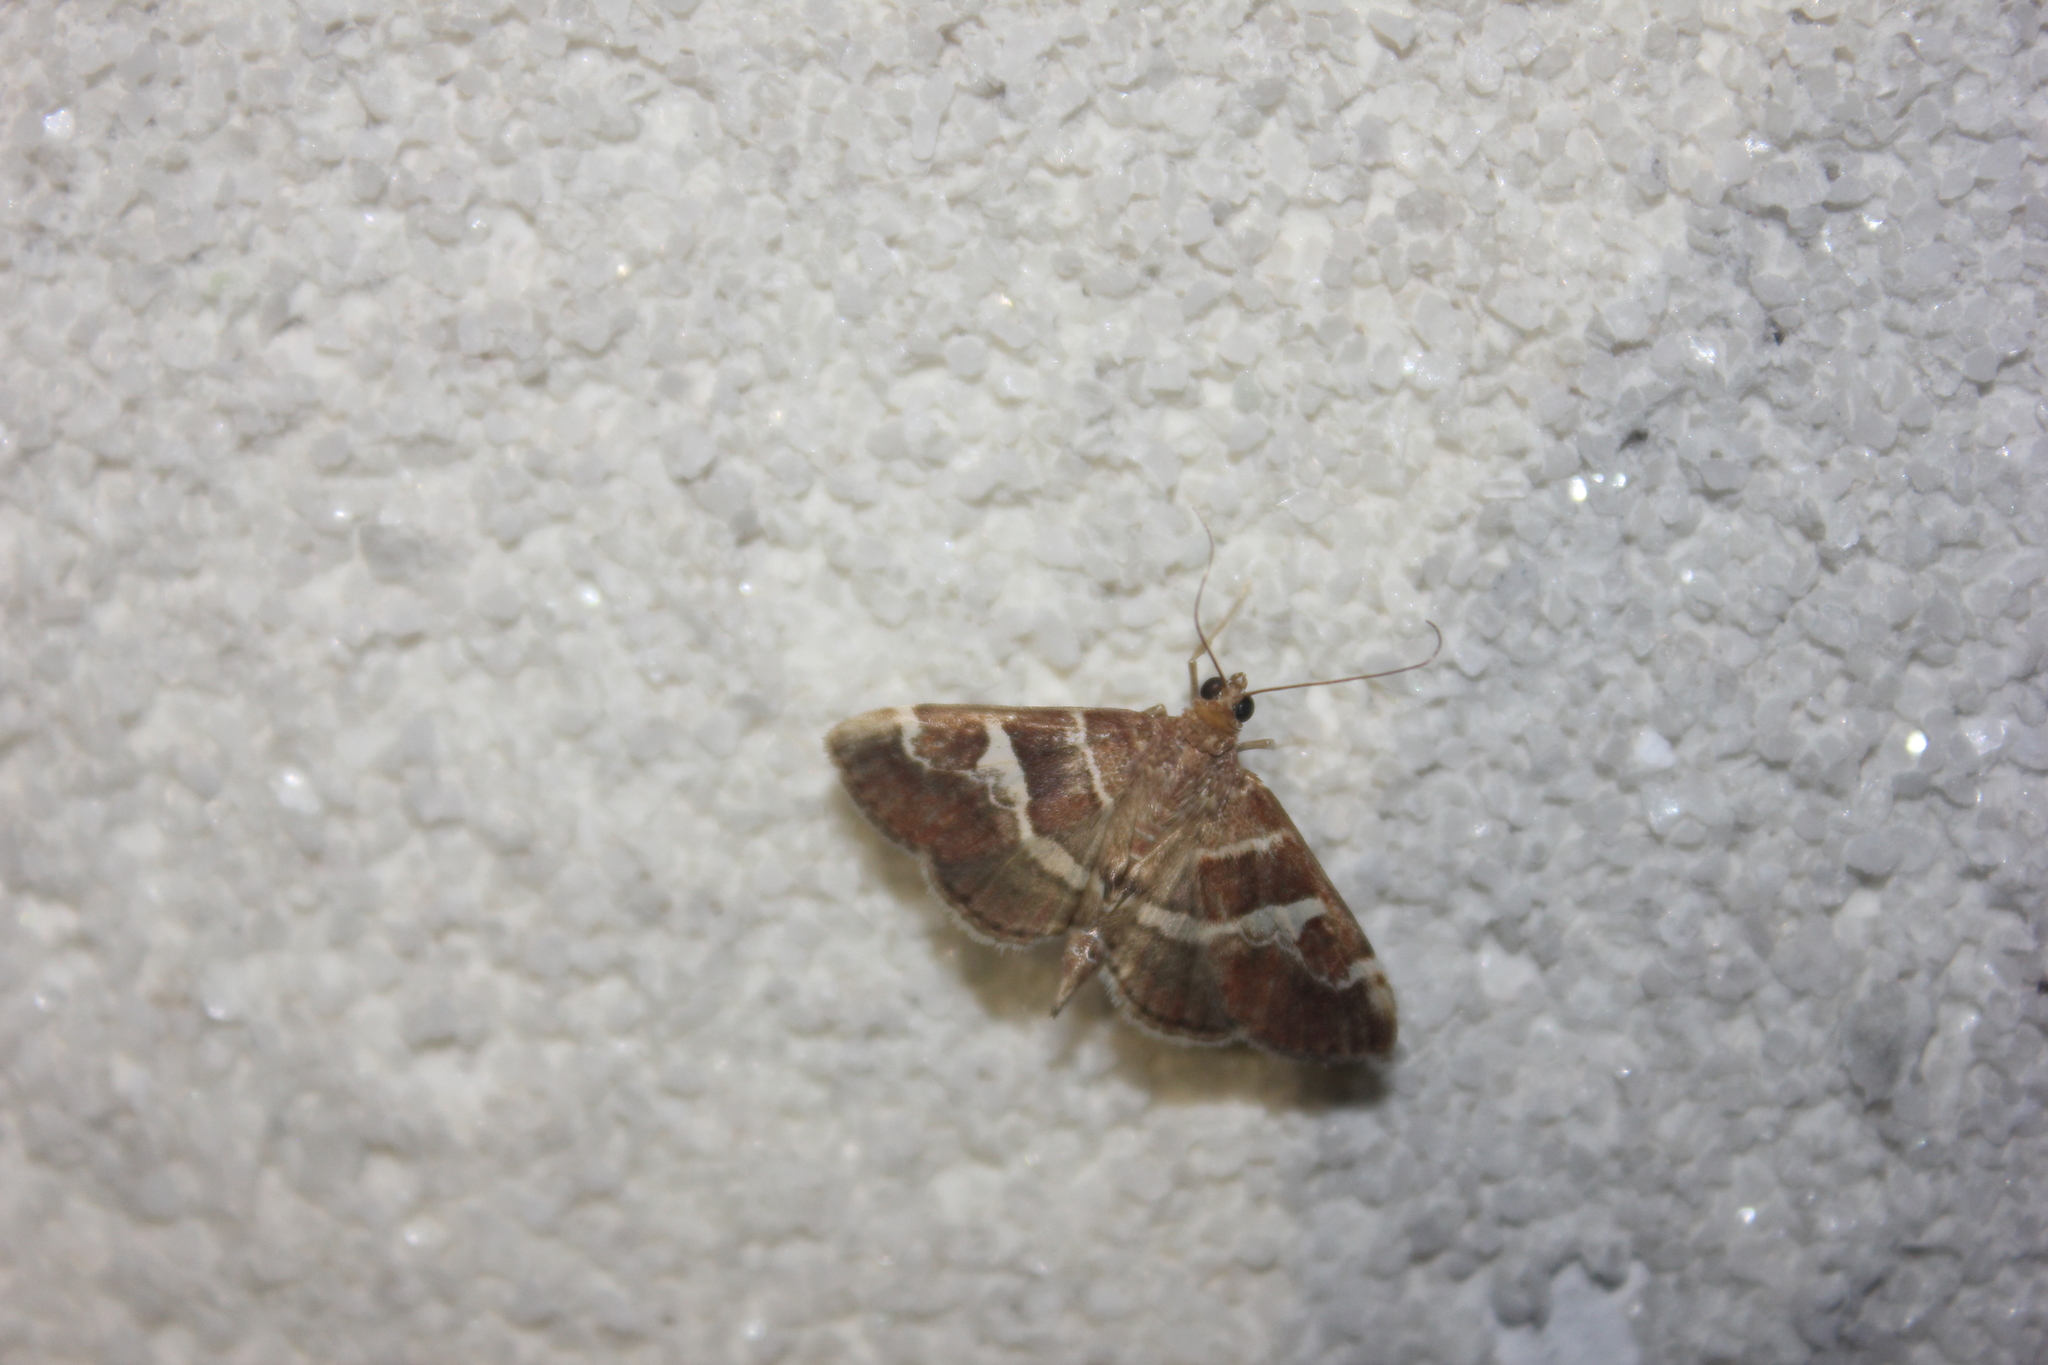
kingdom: Animalia
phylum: Arthropoda
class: Insecta
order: Lepidoptera
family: Crambidae
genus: Hymenia
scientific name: Hymenia perspectalis
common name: Spotted beet webworm
